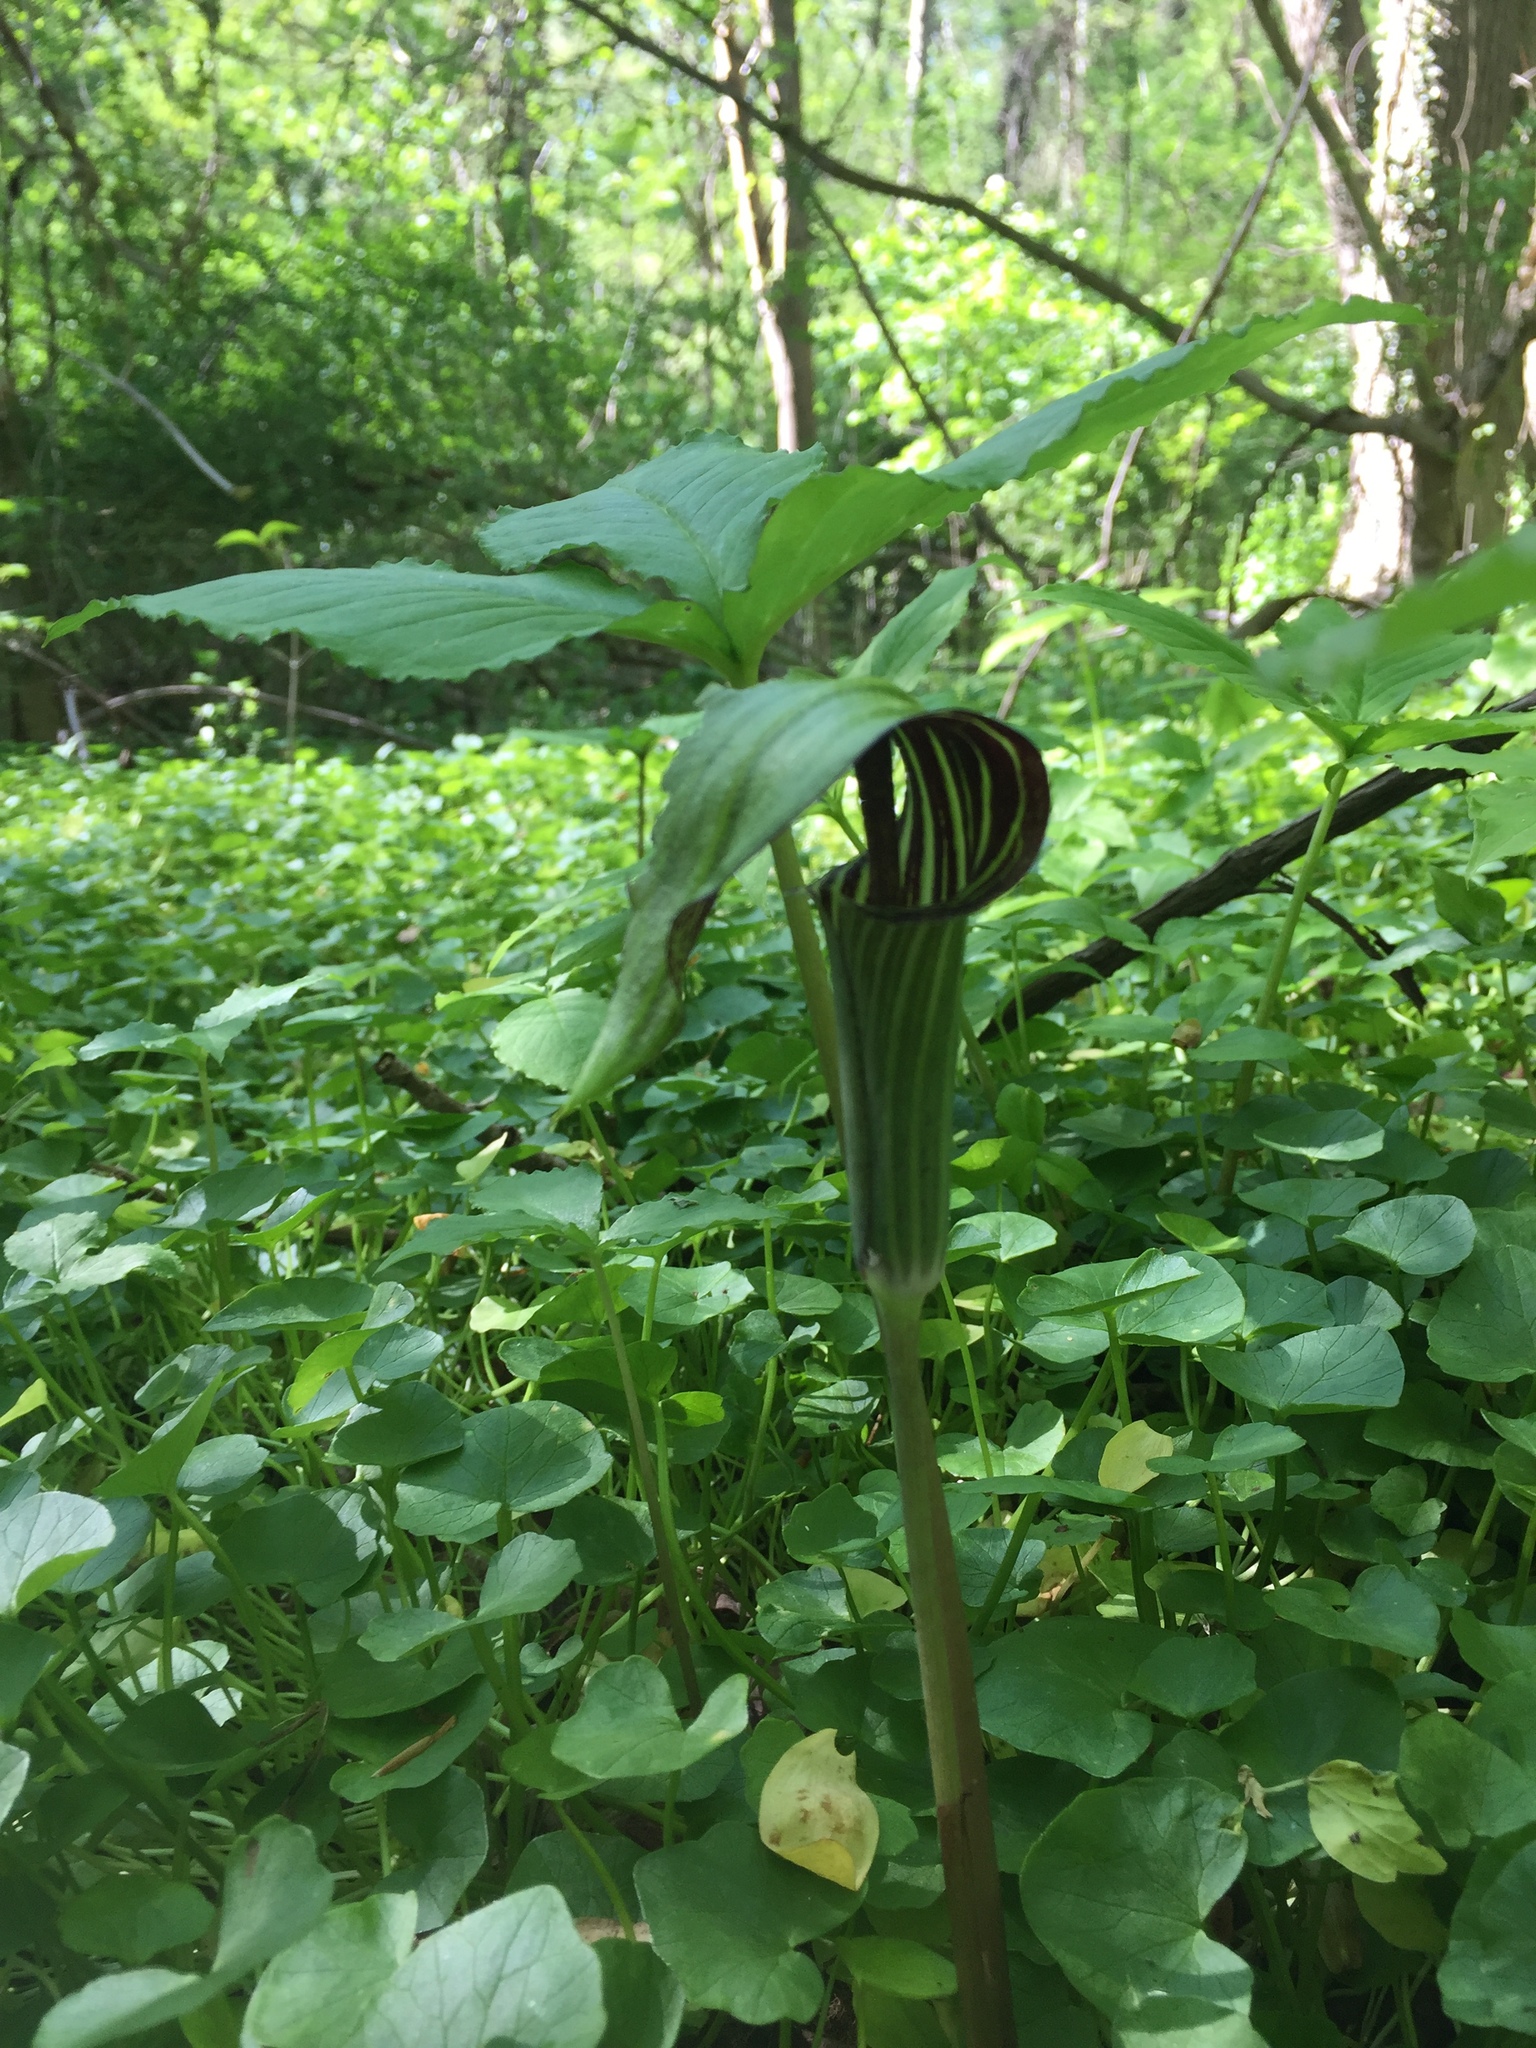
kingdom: Plantae
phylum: Tracheophyta
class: Liliopsida
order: Alismatales
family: Araceae
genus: Arisaema
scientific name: Arisaema triphyllum
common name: Jack-in-the-pulpit
